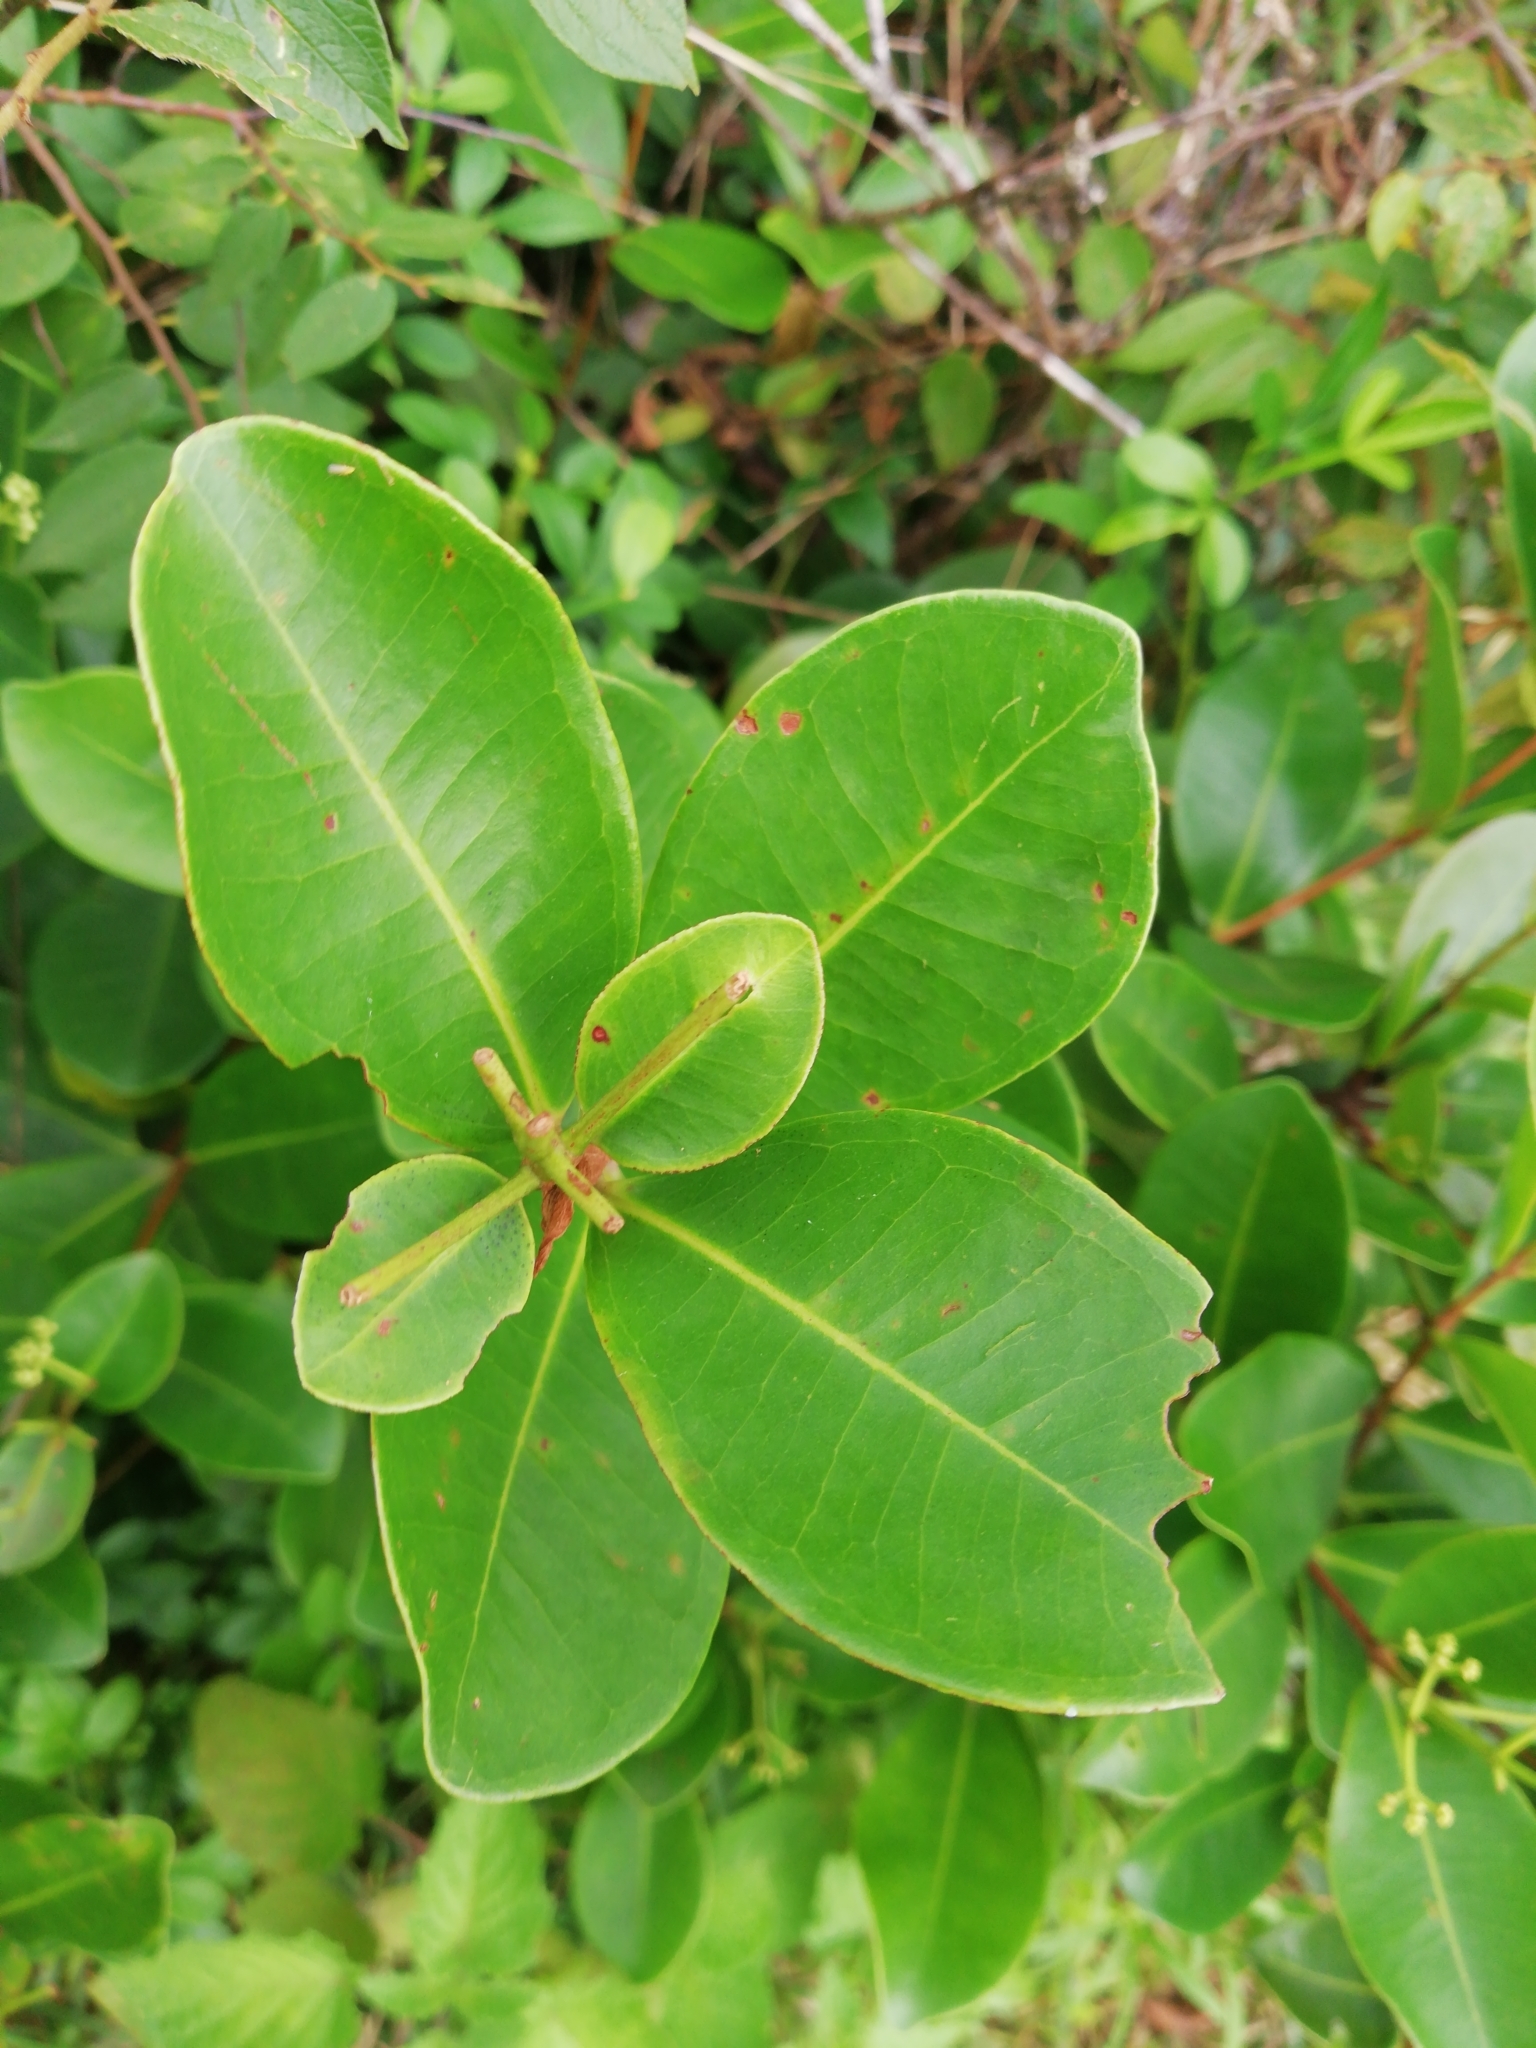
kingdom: Plantae
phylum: Tracheophyta
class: Magnoliopsida
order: Myrtales
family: Myrtaceae
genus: Syzygium
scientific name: Syzygium caryophyllatum
